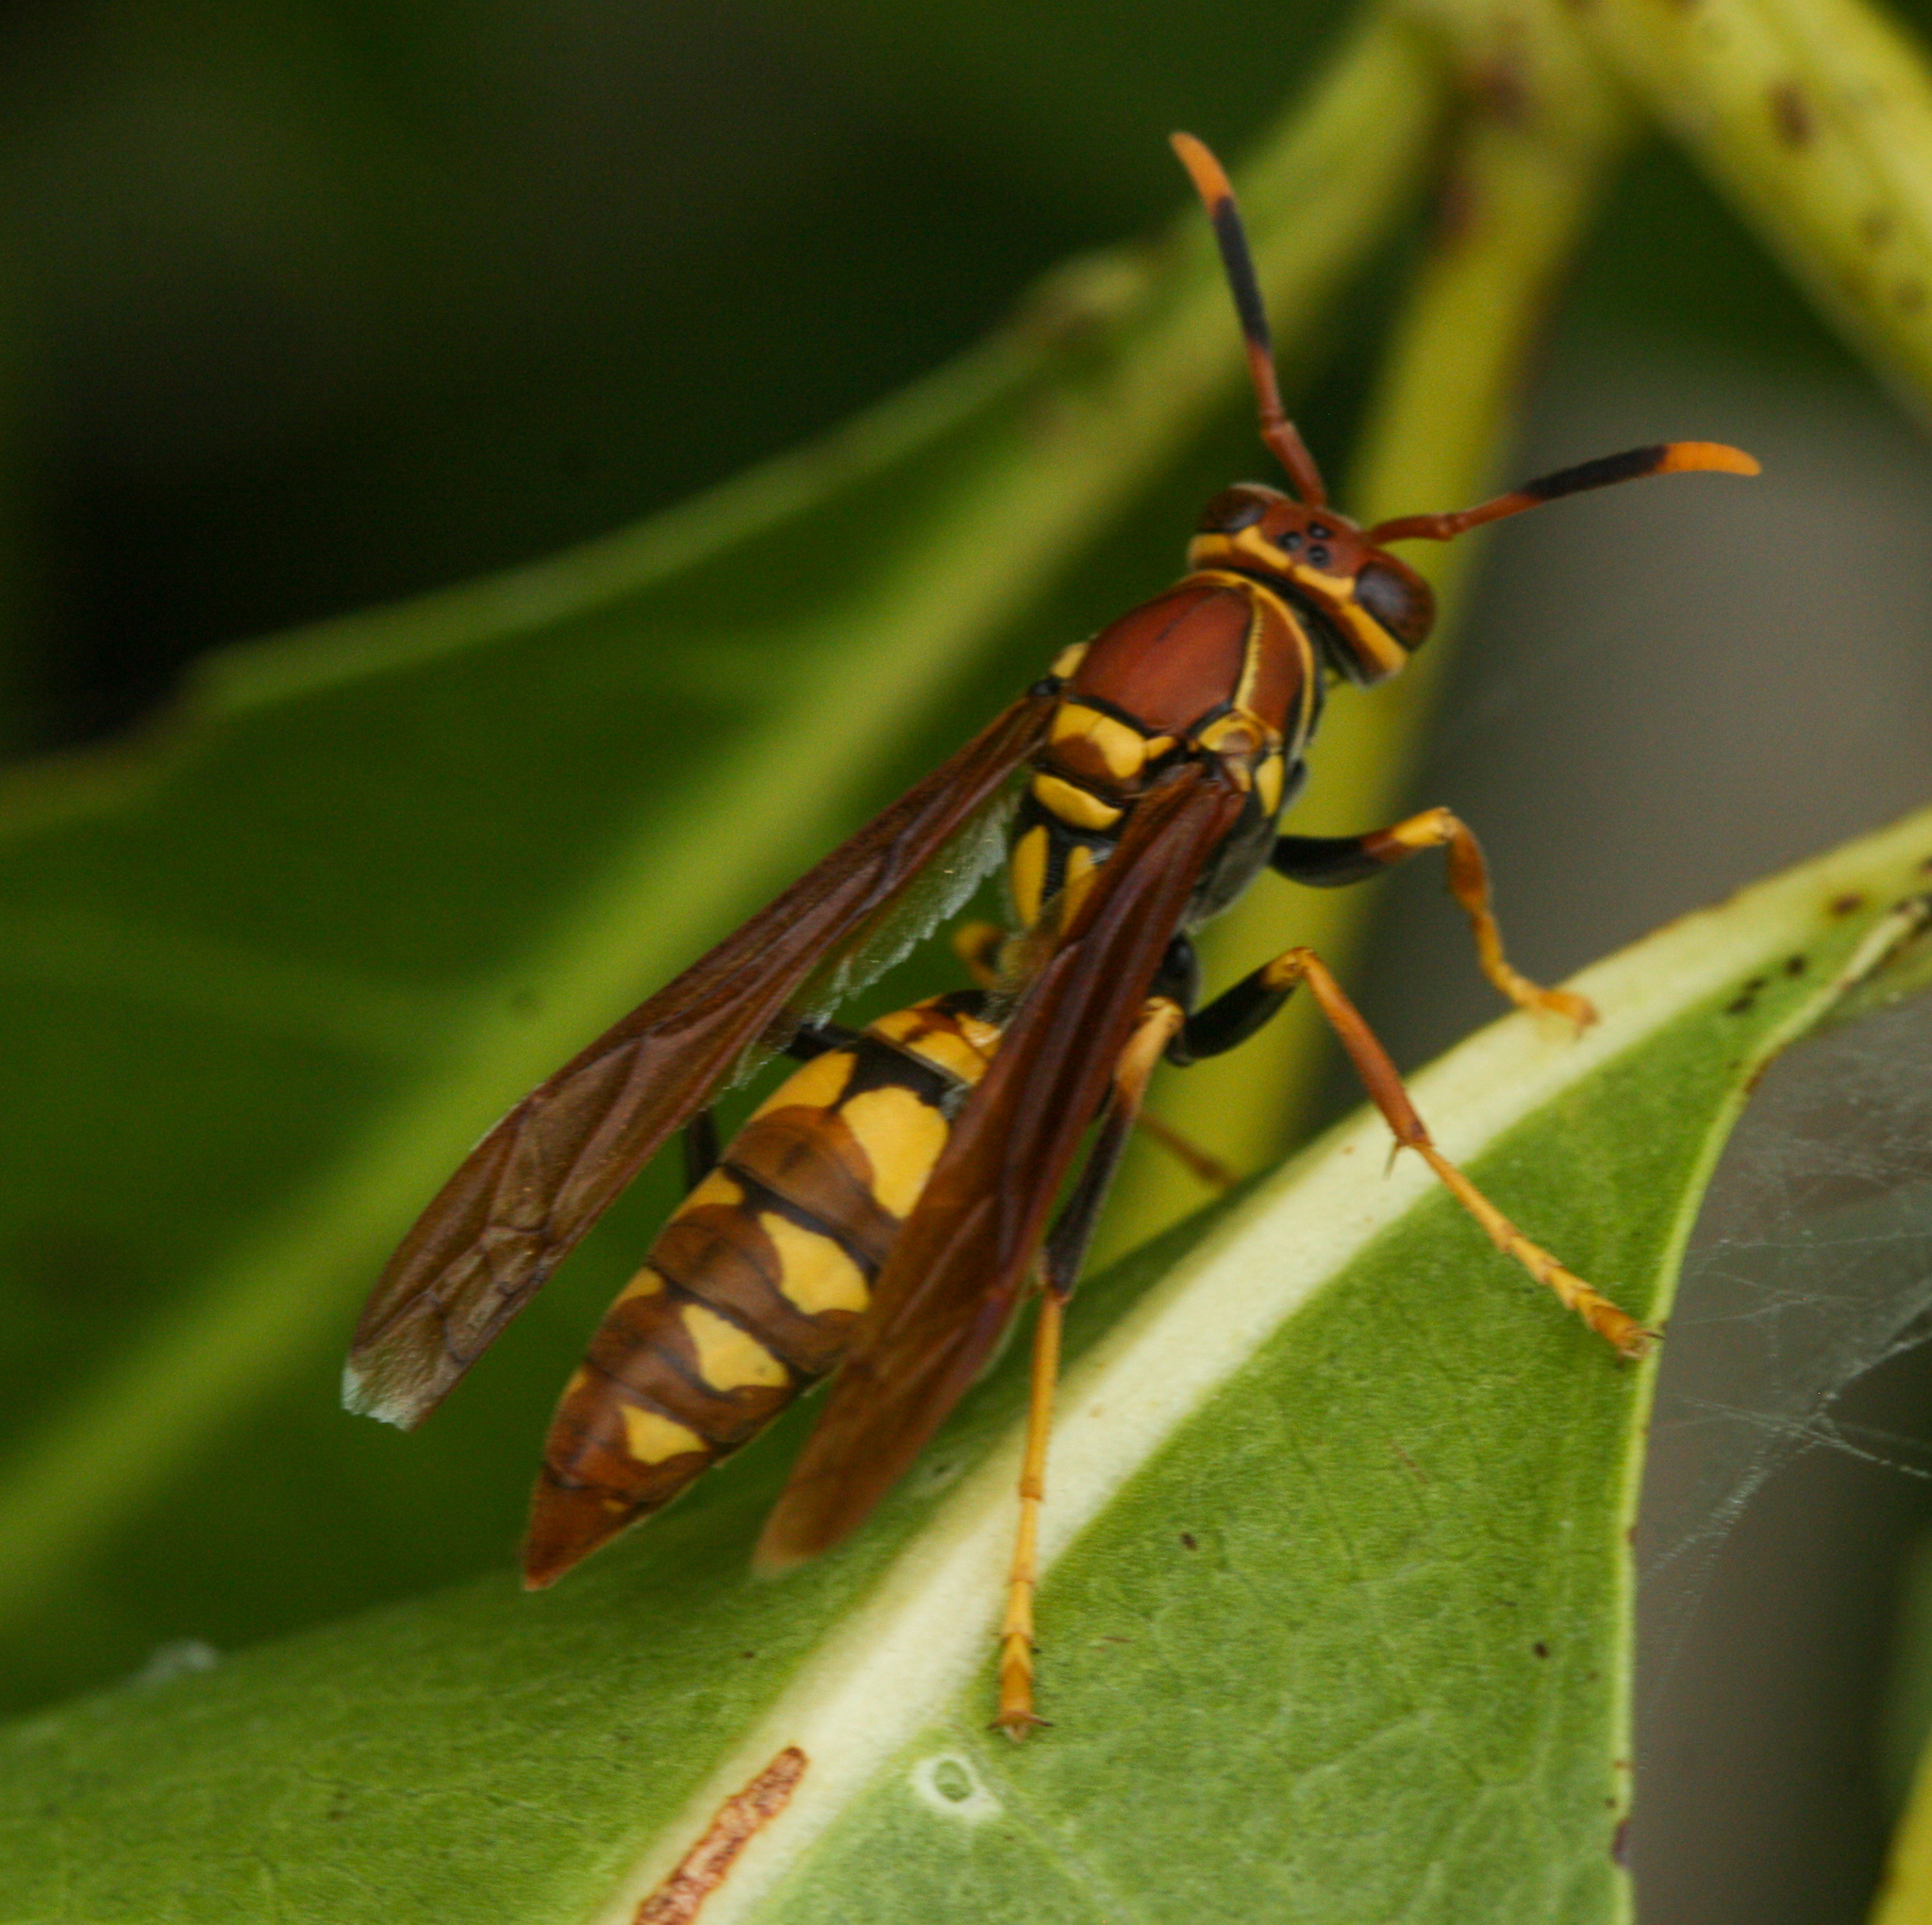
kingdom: Animalia
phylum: Arthropoda
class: Insecta
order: Hymenoptera
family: Eumenidae
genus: Polistes
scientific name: Polistes versicolor
